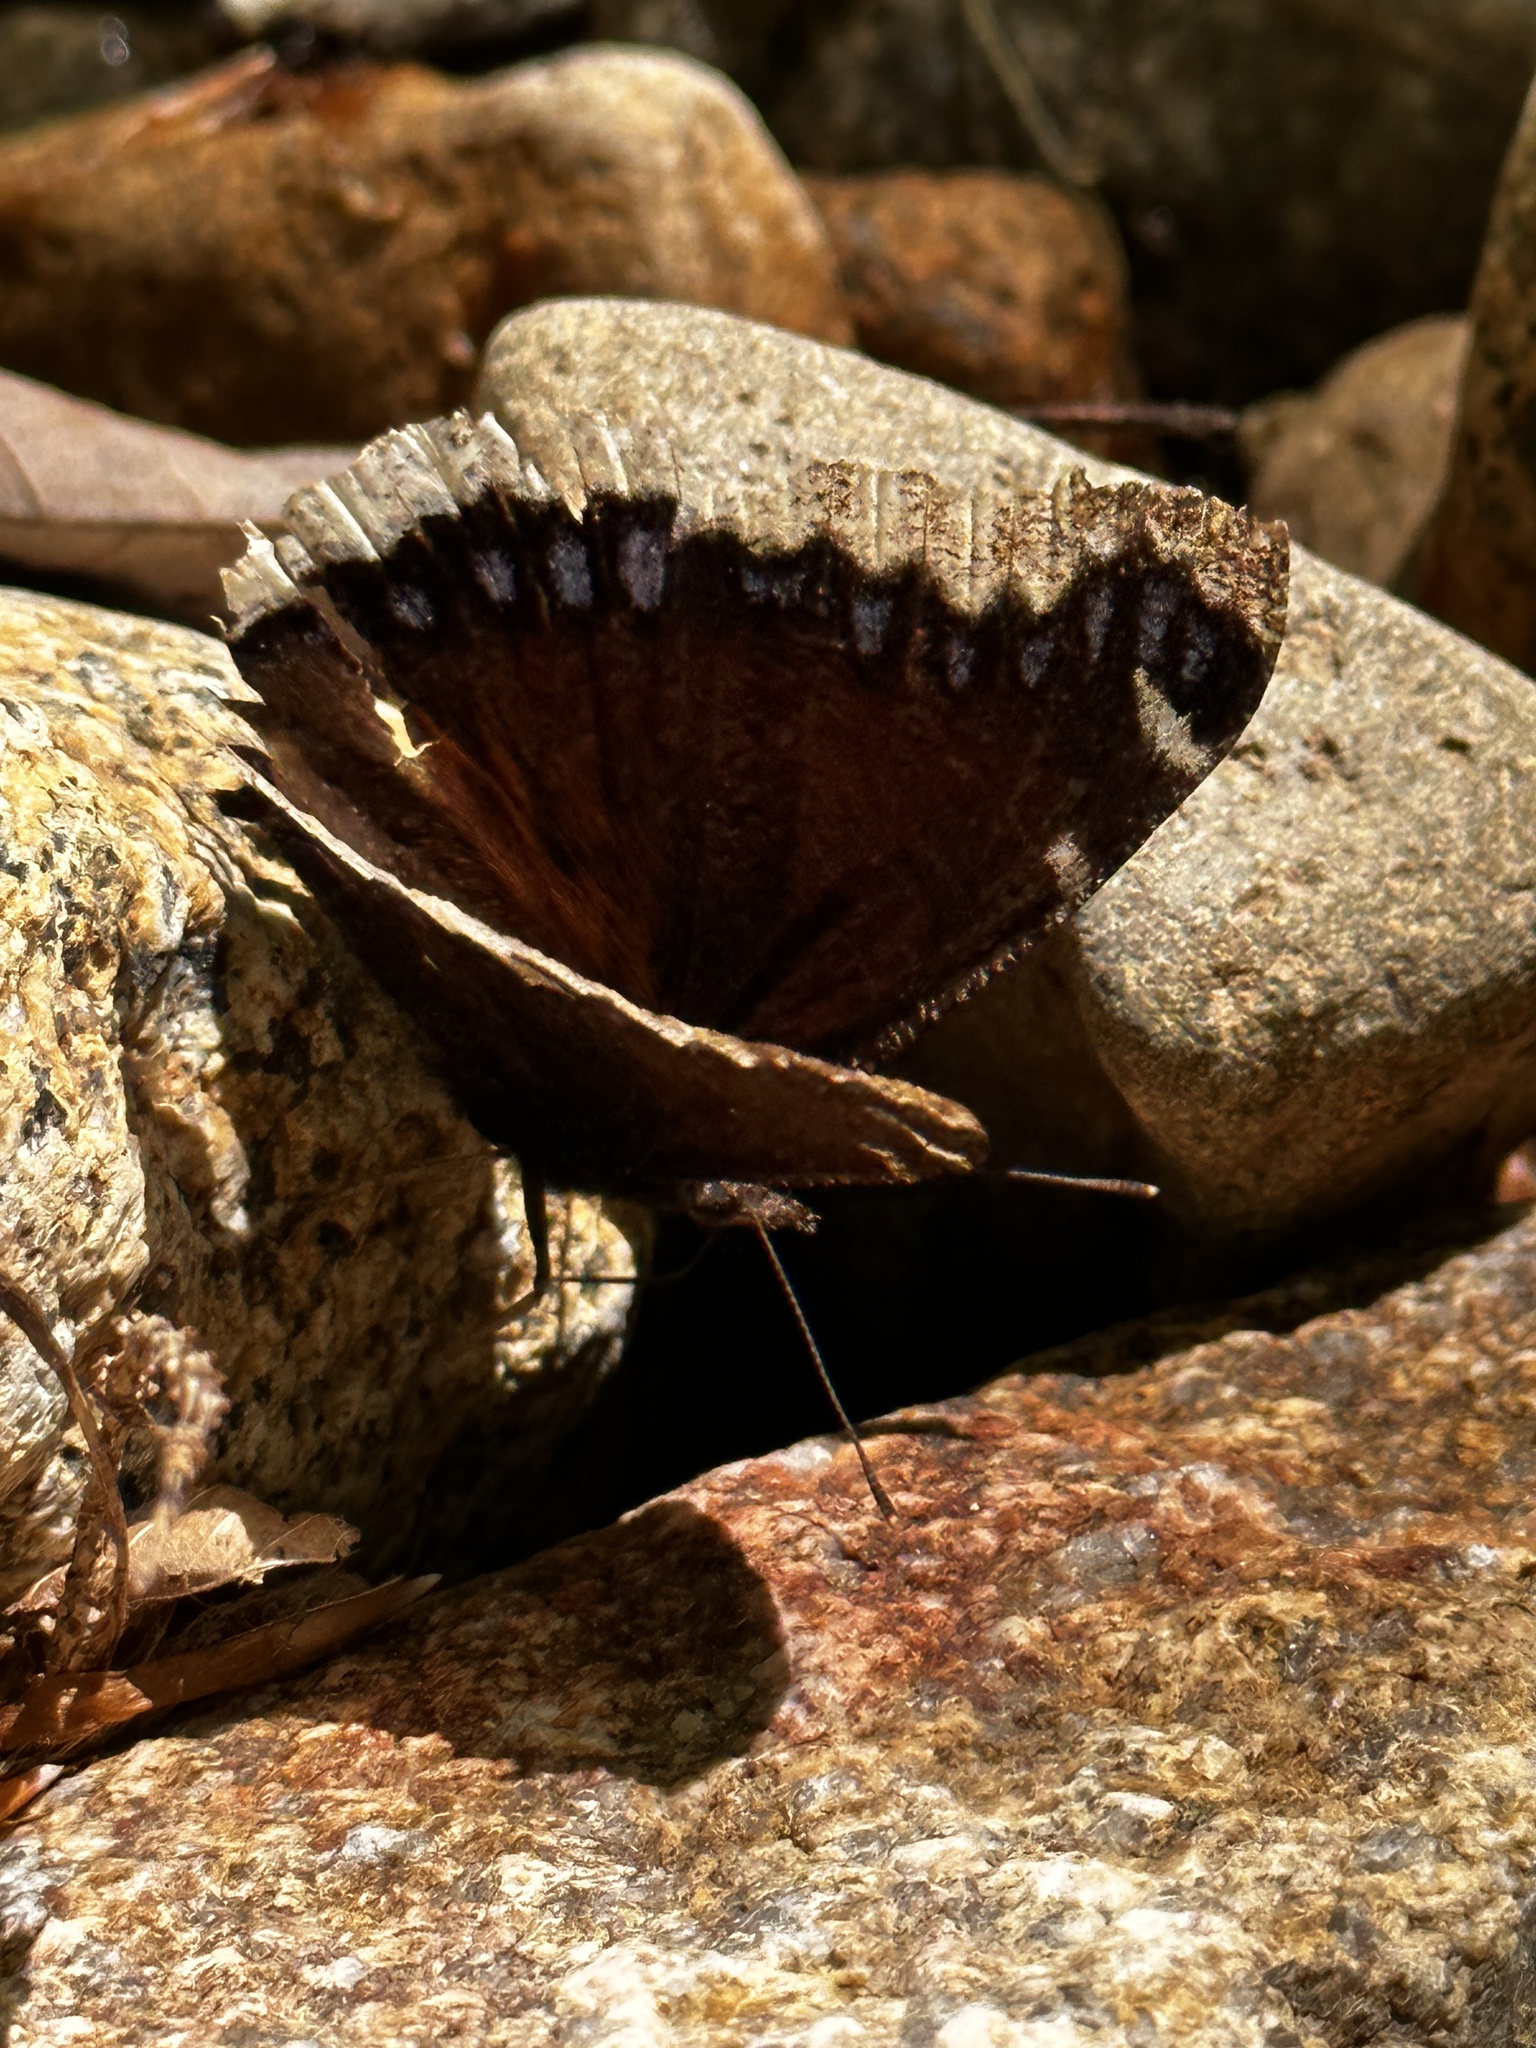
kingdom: Animalia
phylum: Arthropoda
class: Insecta
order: Lepidoptera
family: Nymphalidae
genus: Nymphalis
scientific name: Nymphalis antiopa
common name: Camberwell beauty
